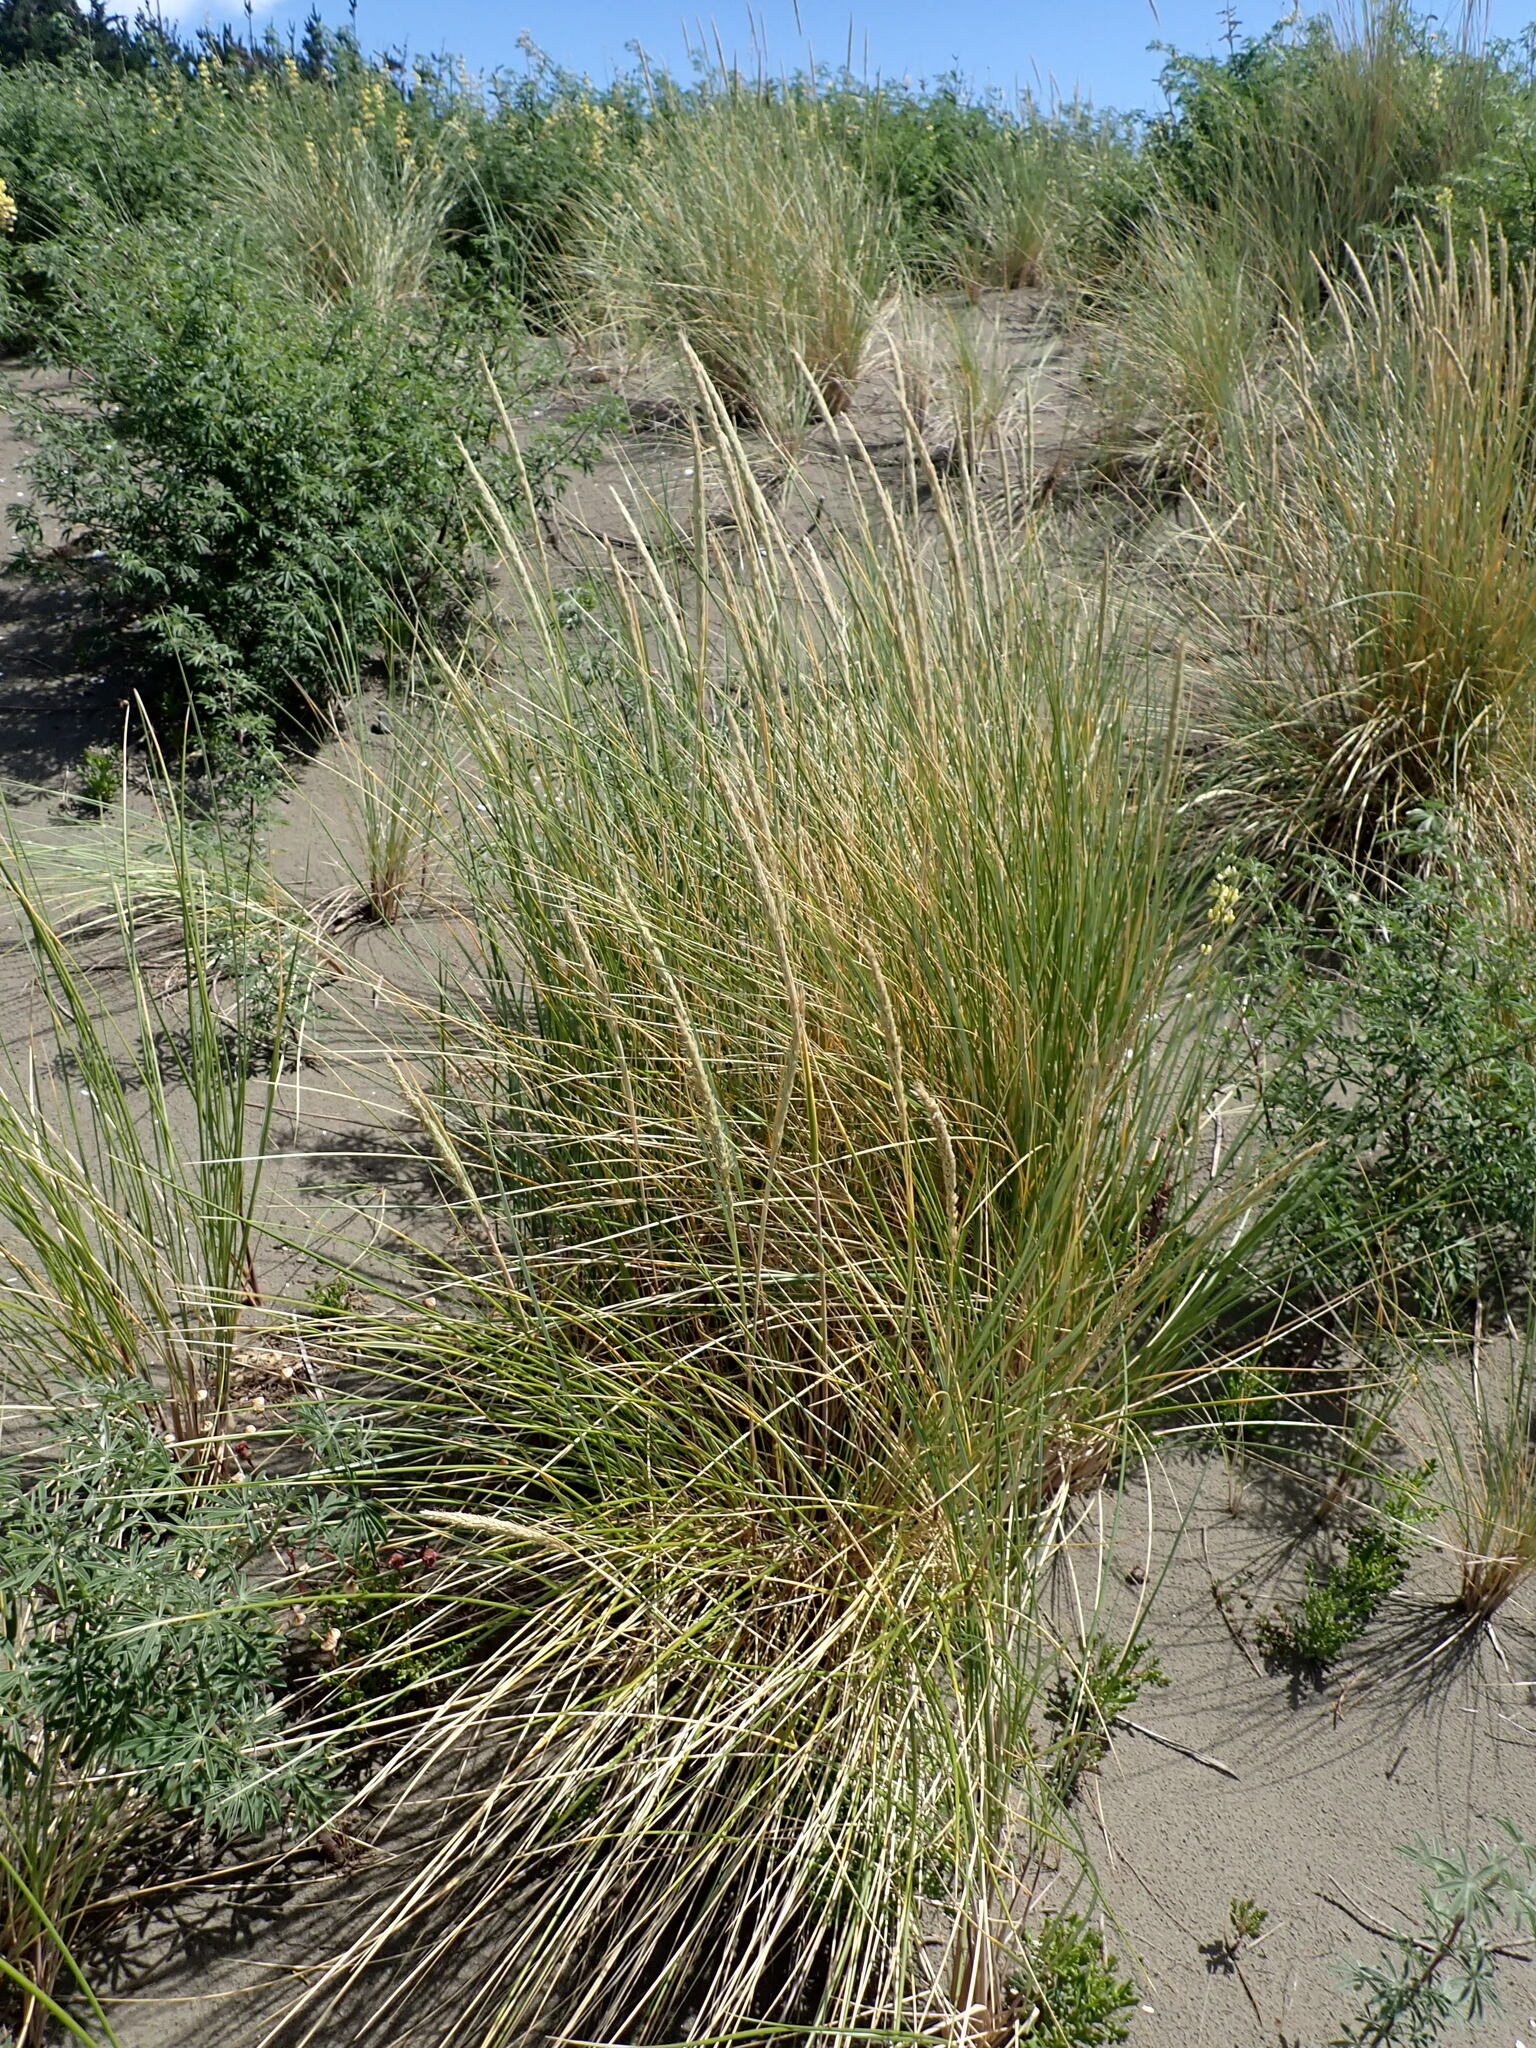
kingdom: Plantae
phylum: Tracheophyta
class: Liliopsida
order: Poales
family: Poaceae
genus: Calamagrostis
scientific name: Calamagrostis arenaria
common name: European beachgrass
